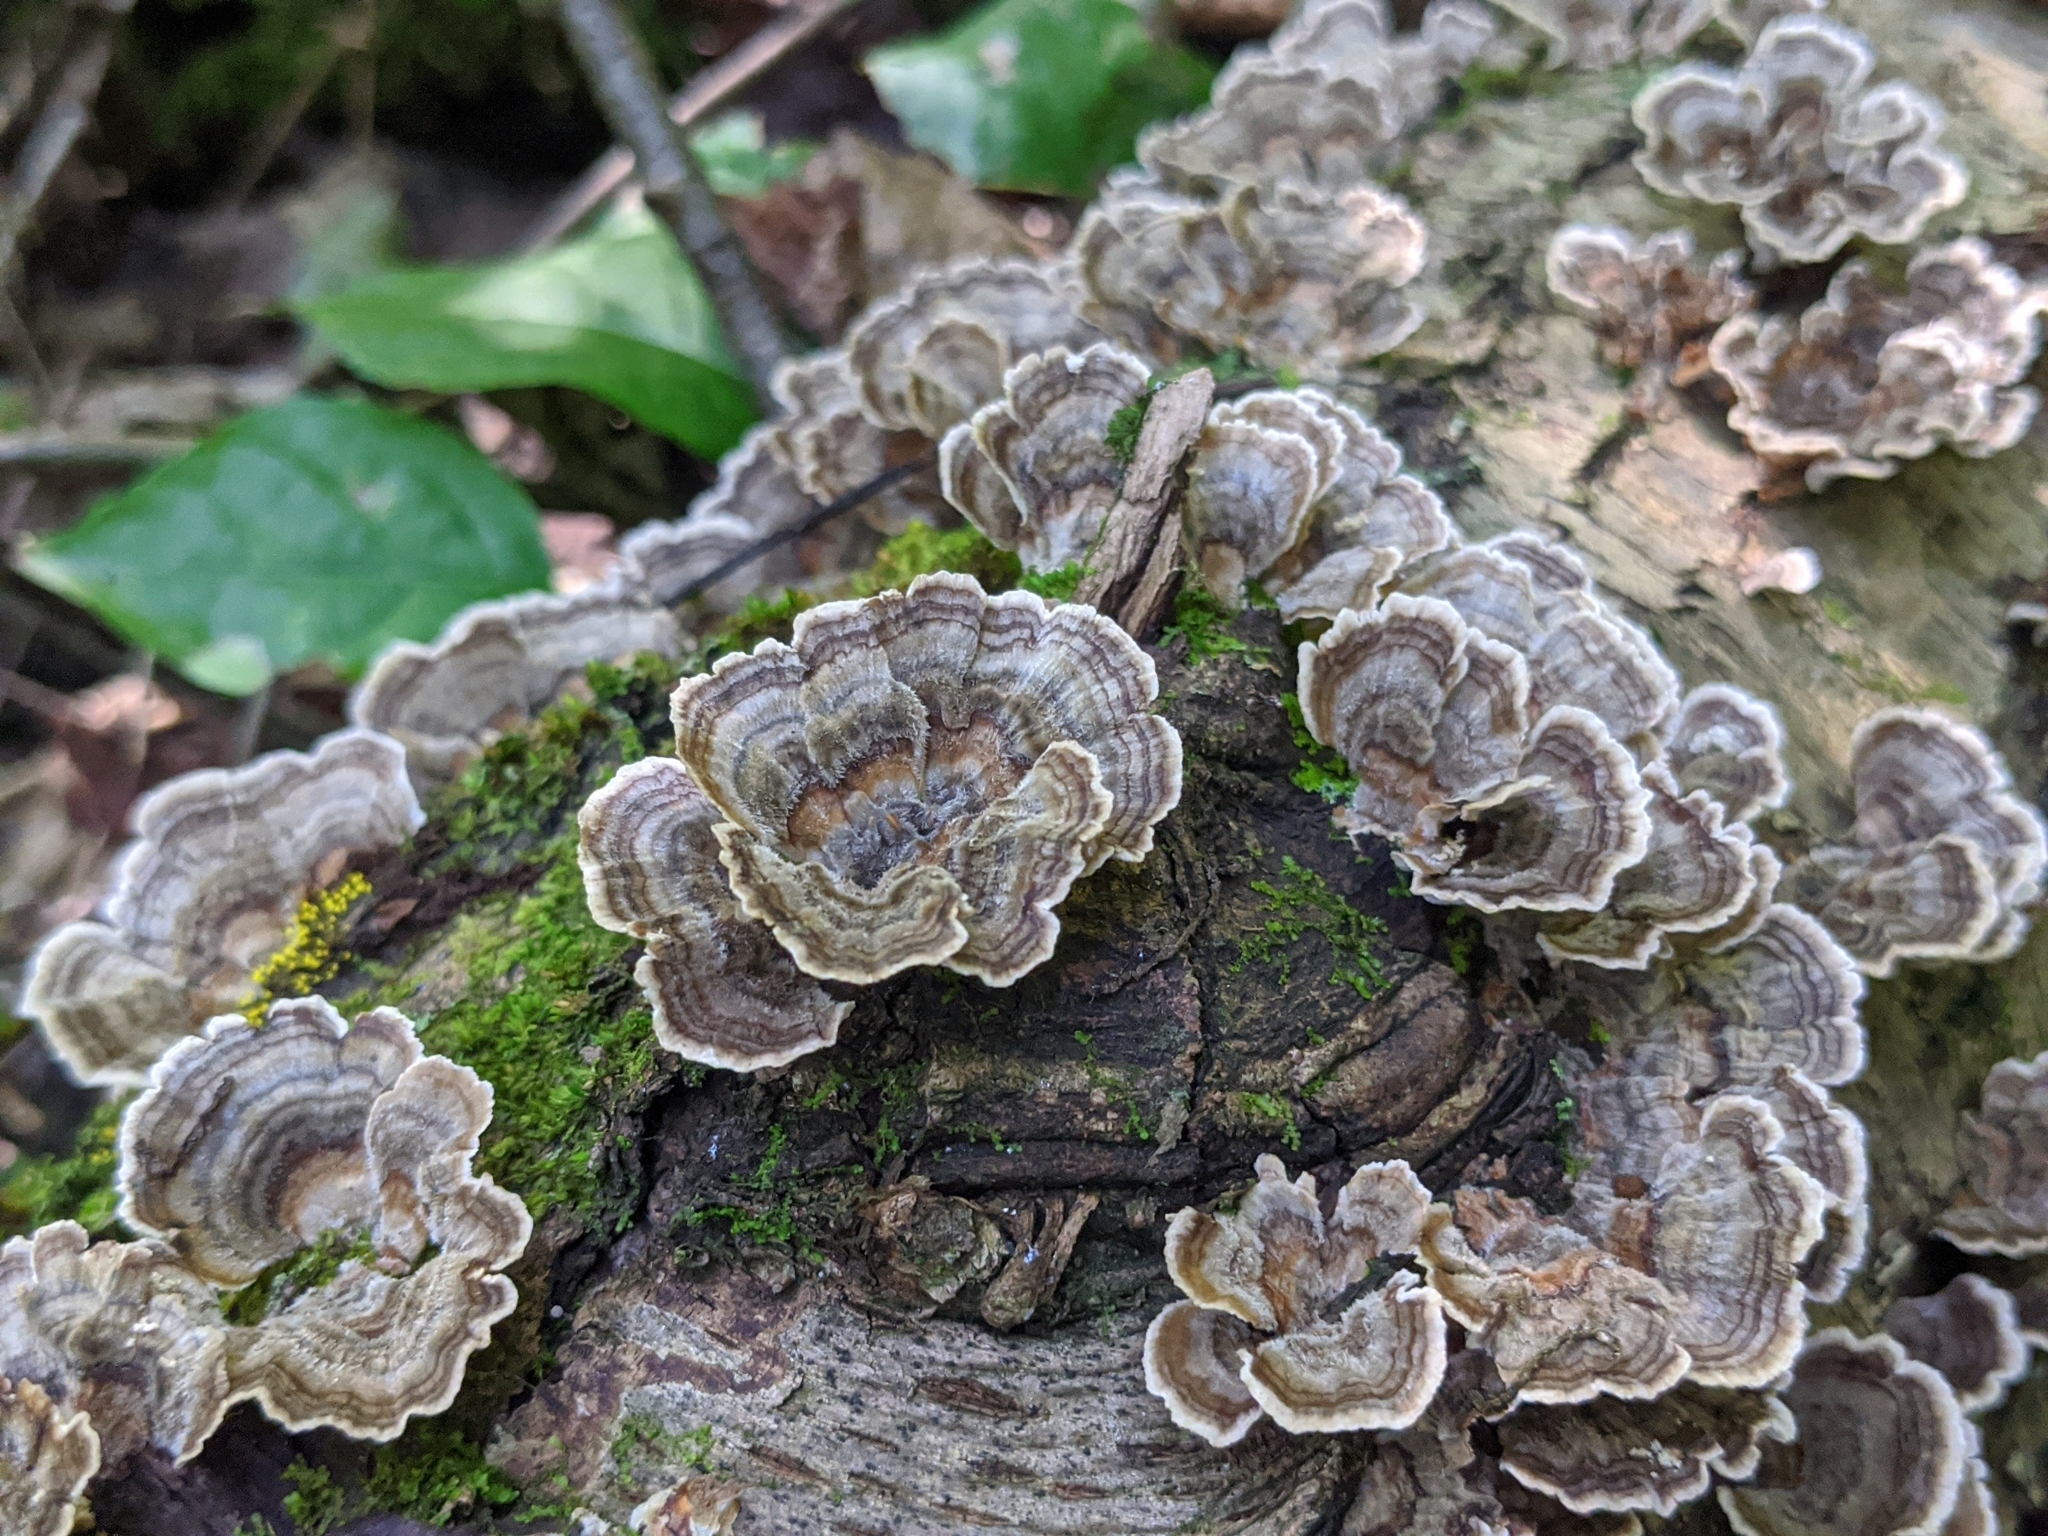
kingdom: Fungi
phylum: Basidiomycota
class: Agaricomycetes
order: Polyporales
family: Polyporaceae
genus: Trametes
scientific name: Trametes versicolor
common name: Turkeytail
